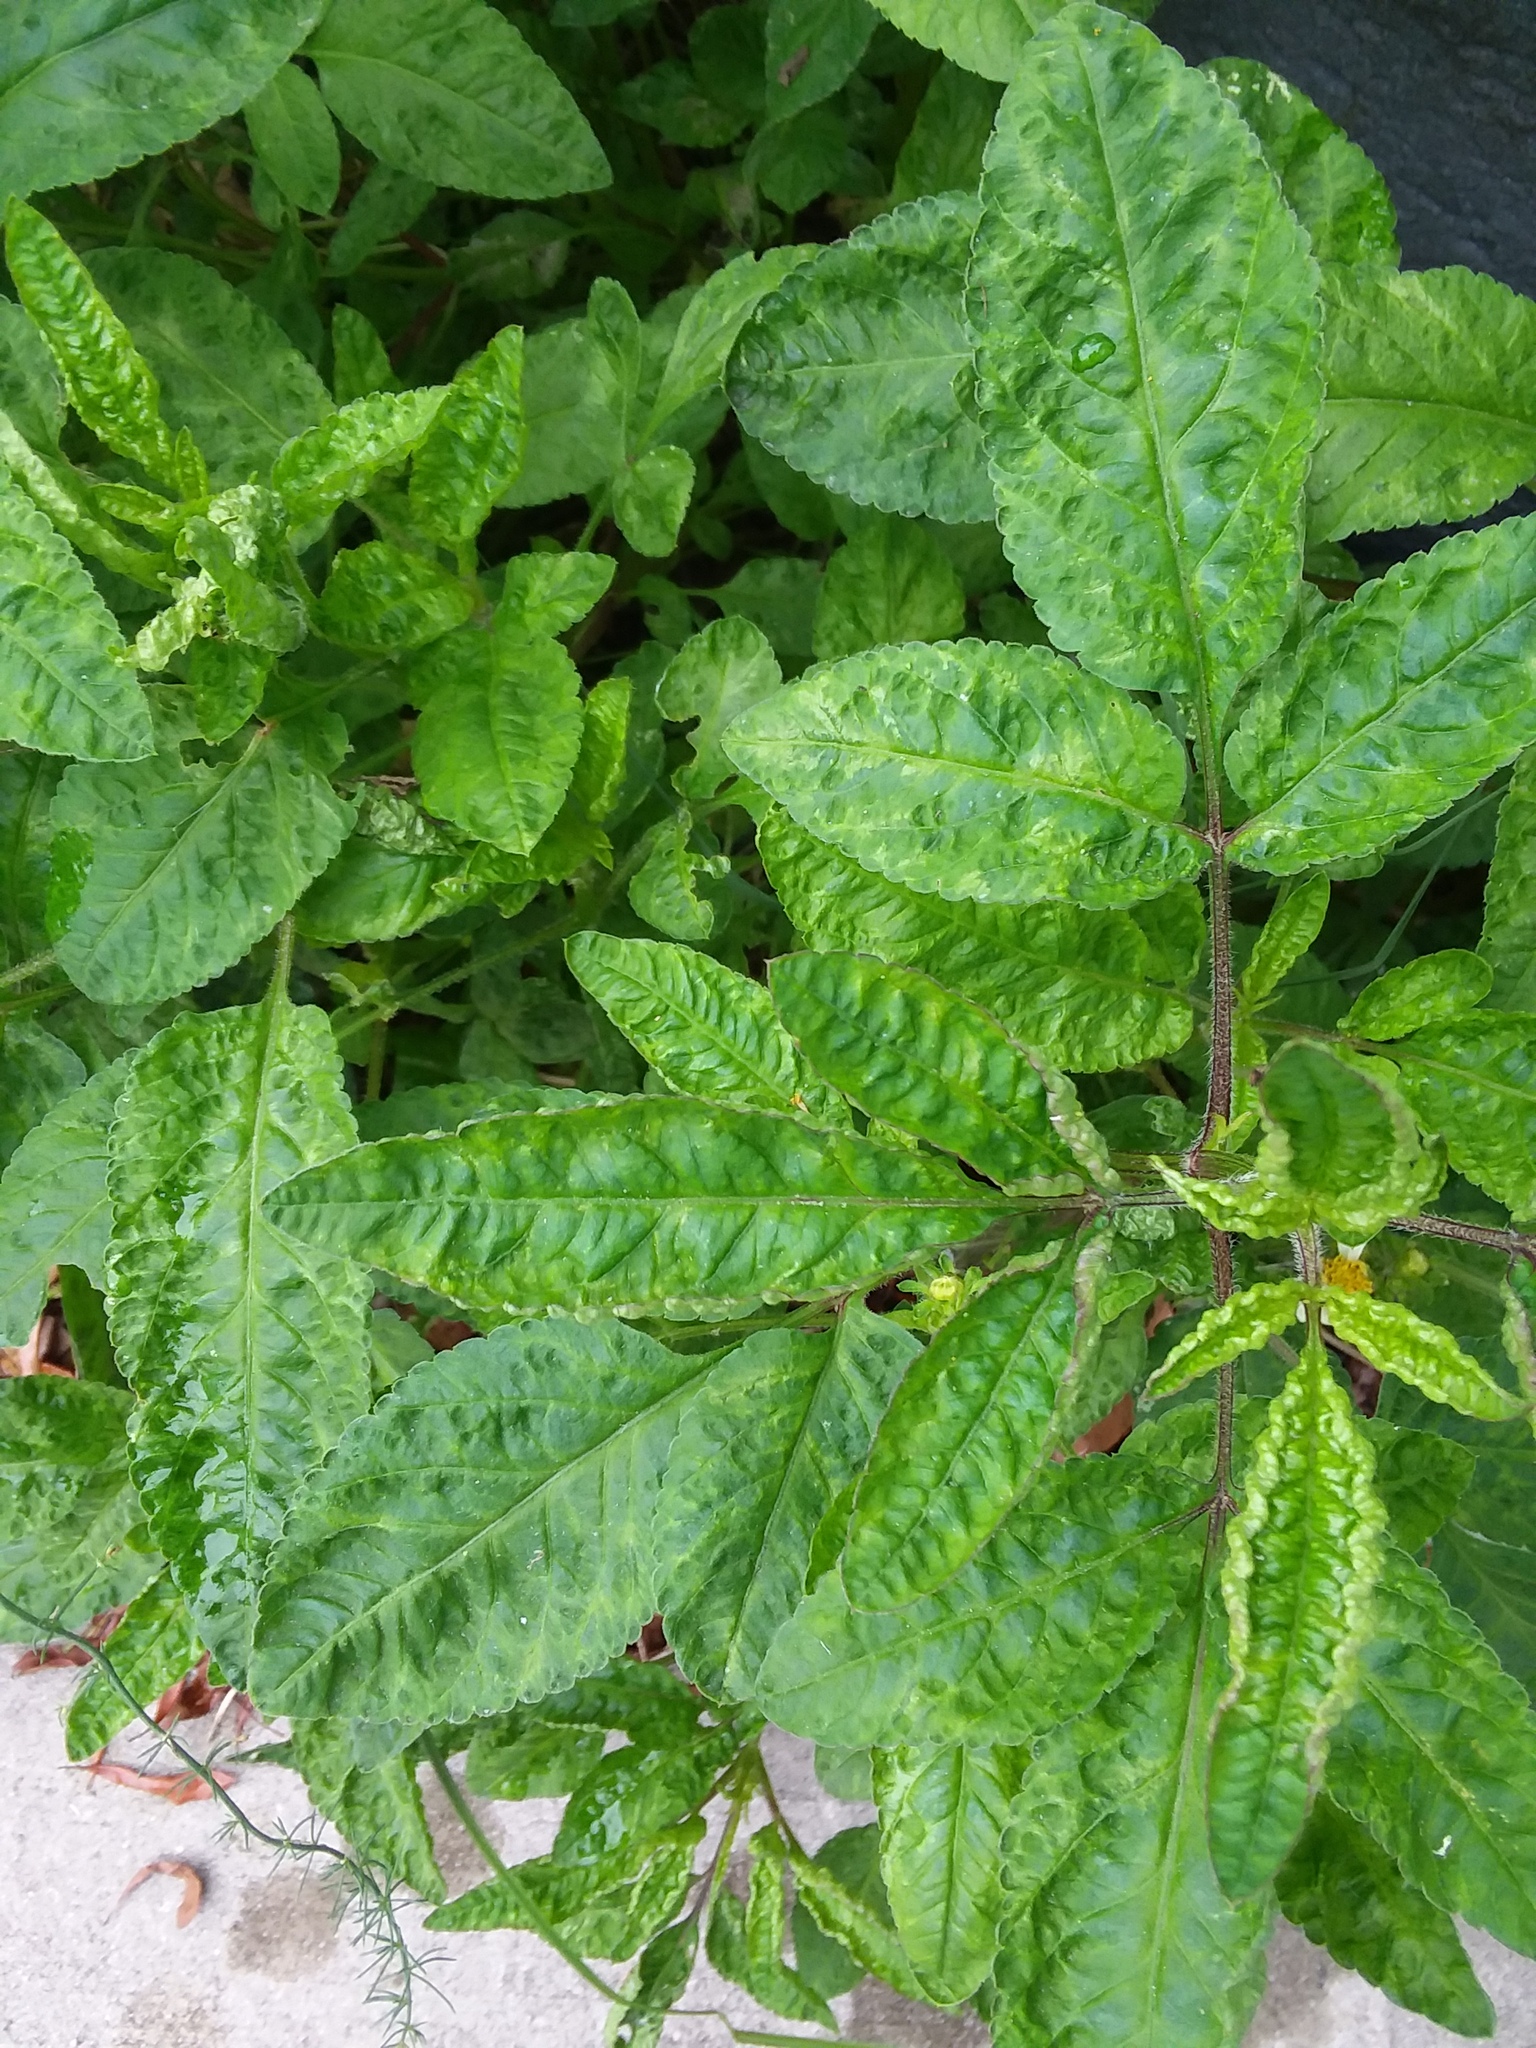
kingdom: Plantae
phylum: Tracheophyta
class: Magnoliopsida
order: Asterales
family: Asteraceae
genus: Bidens
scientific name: Bidens alba
